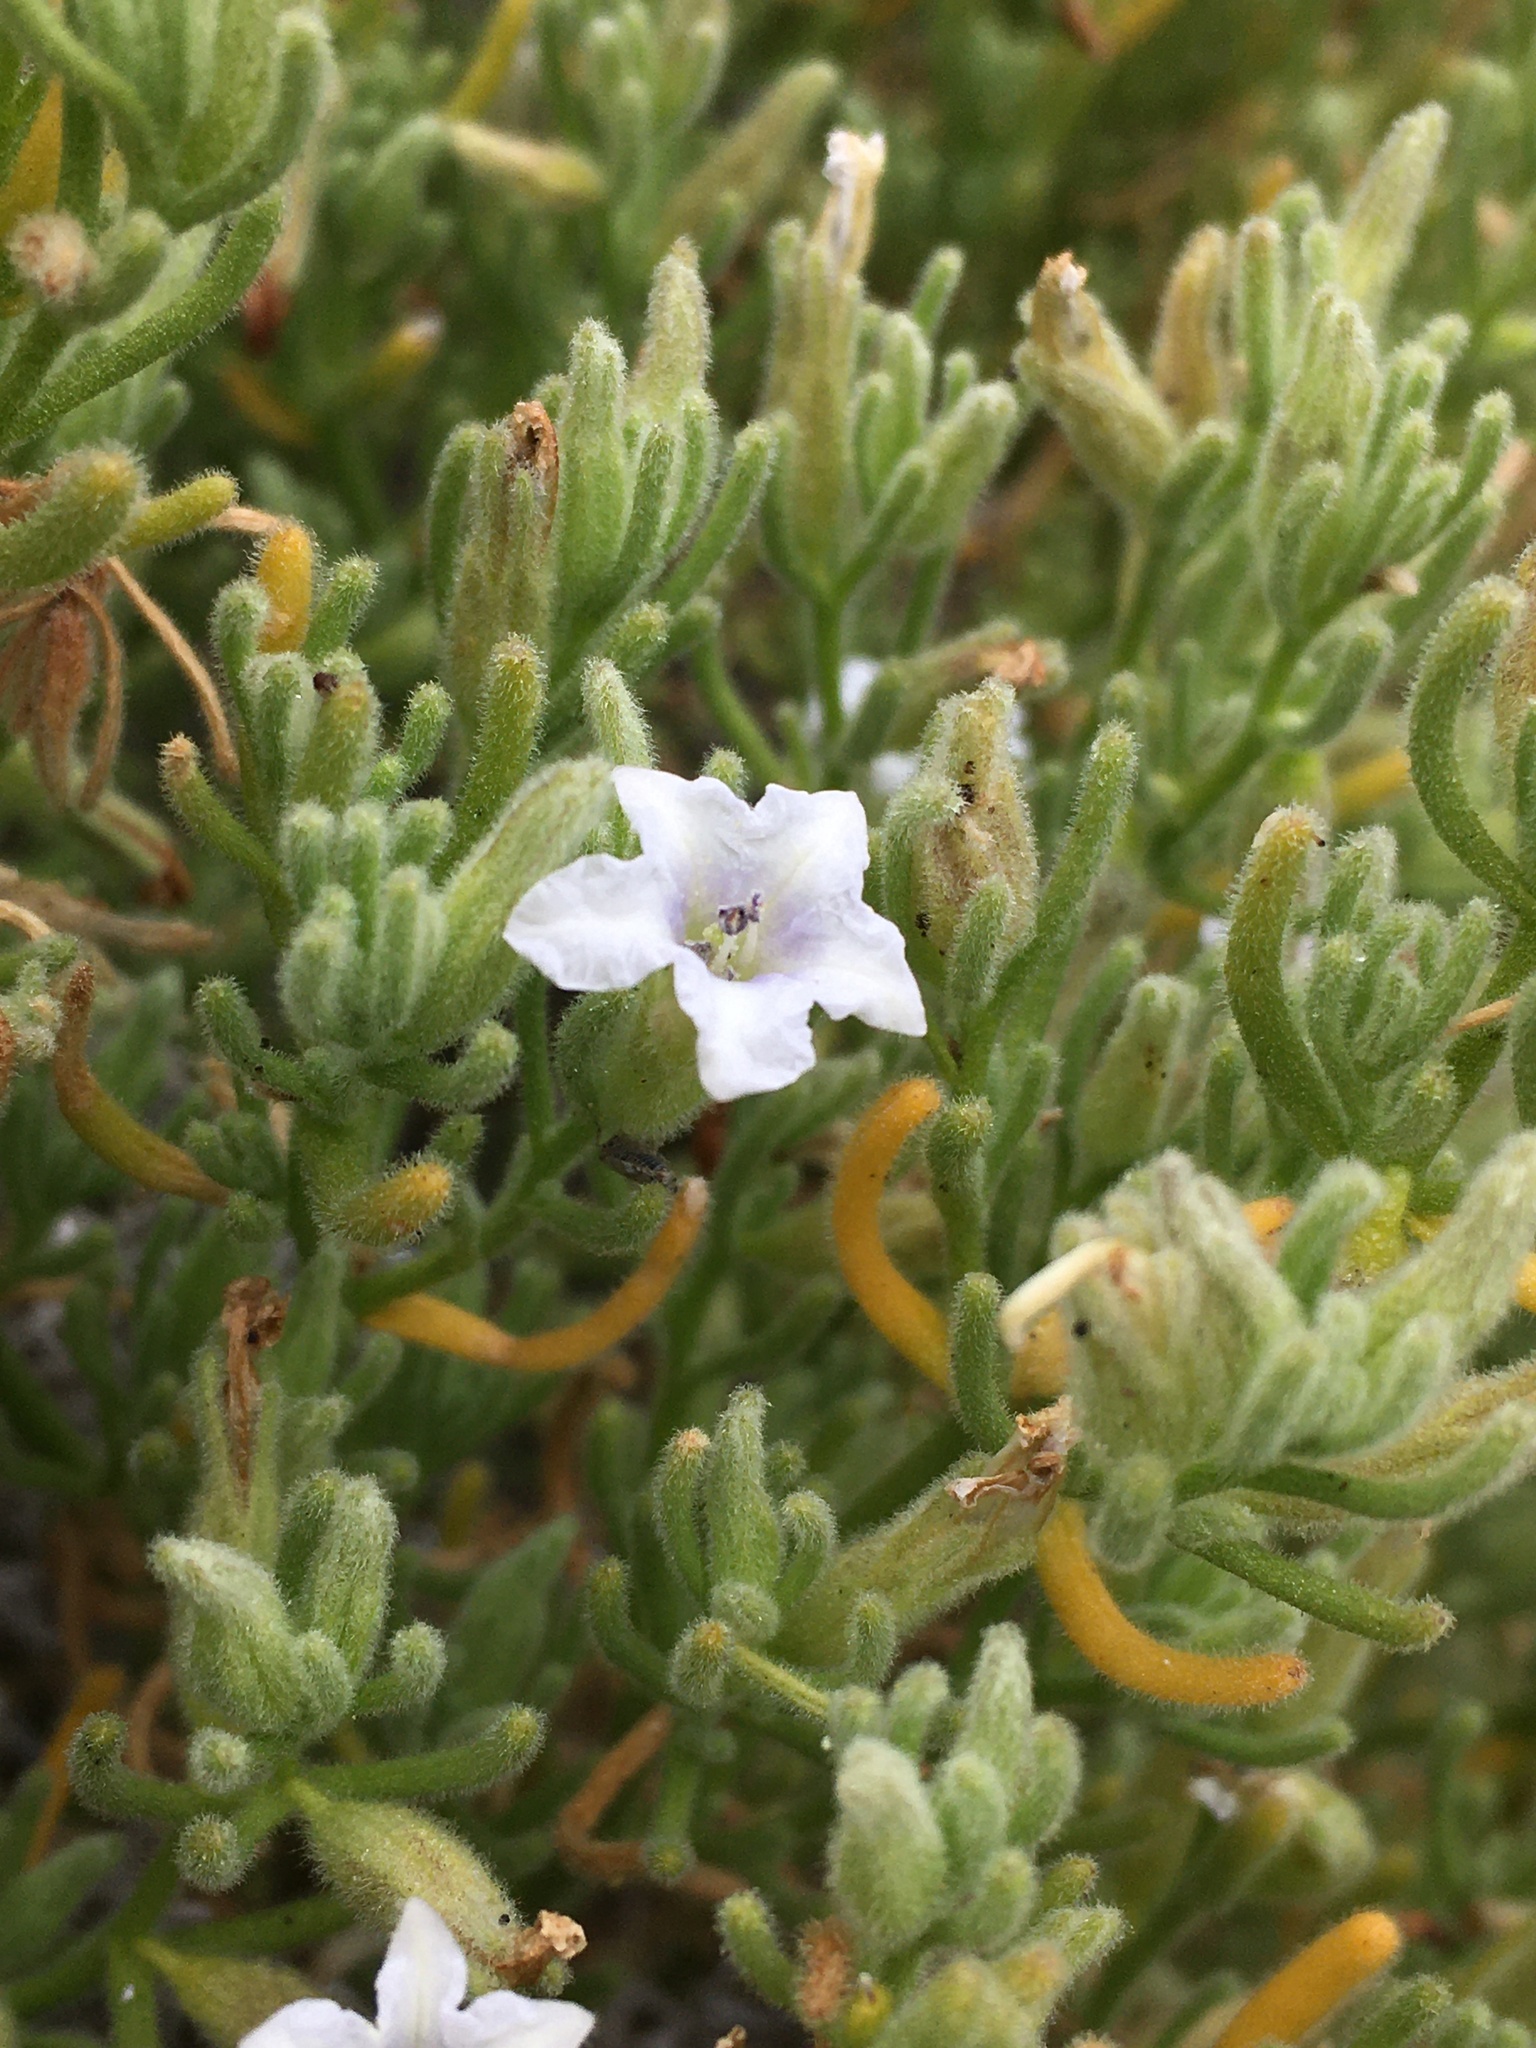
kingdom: Plantae
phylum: Tracheophyta
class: Magnoliopsida
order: Solanales
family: Solanaceae
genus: Nolana
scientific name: Nolana clivicola
